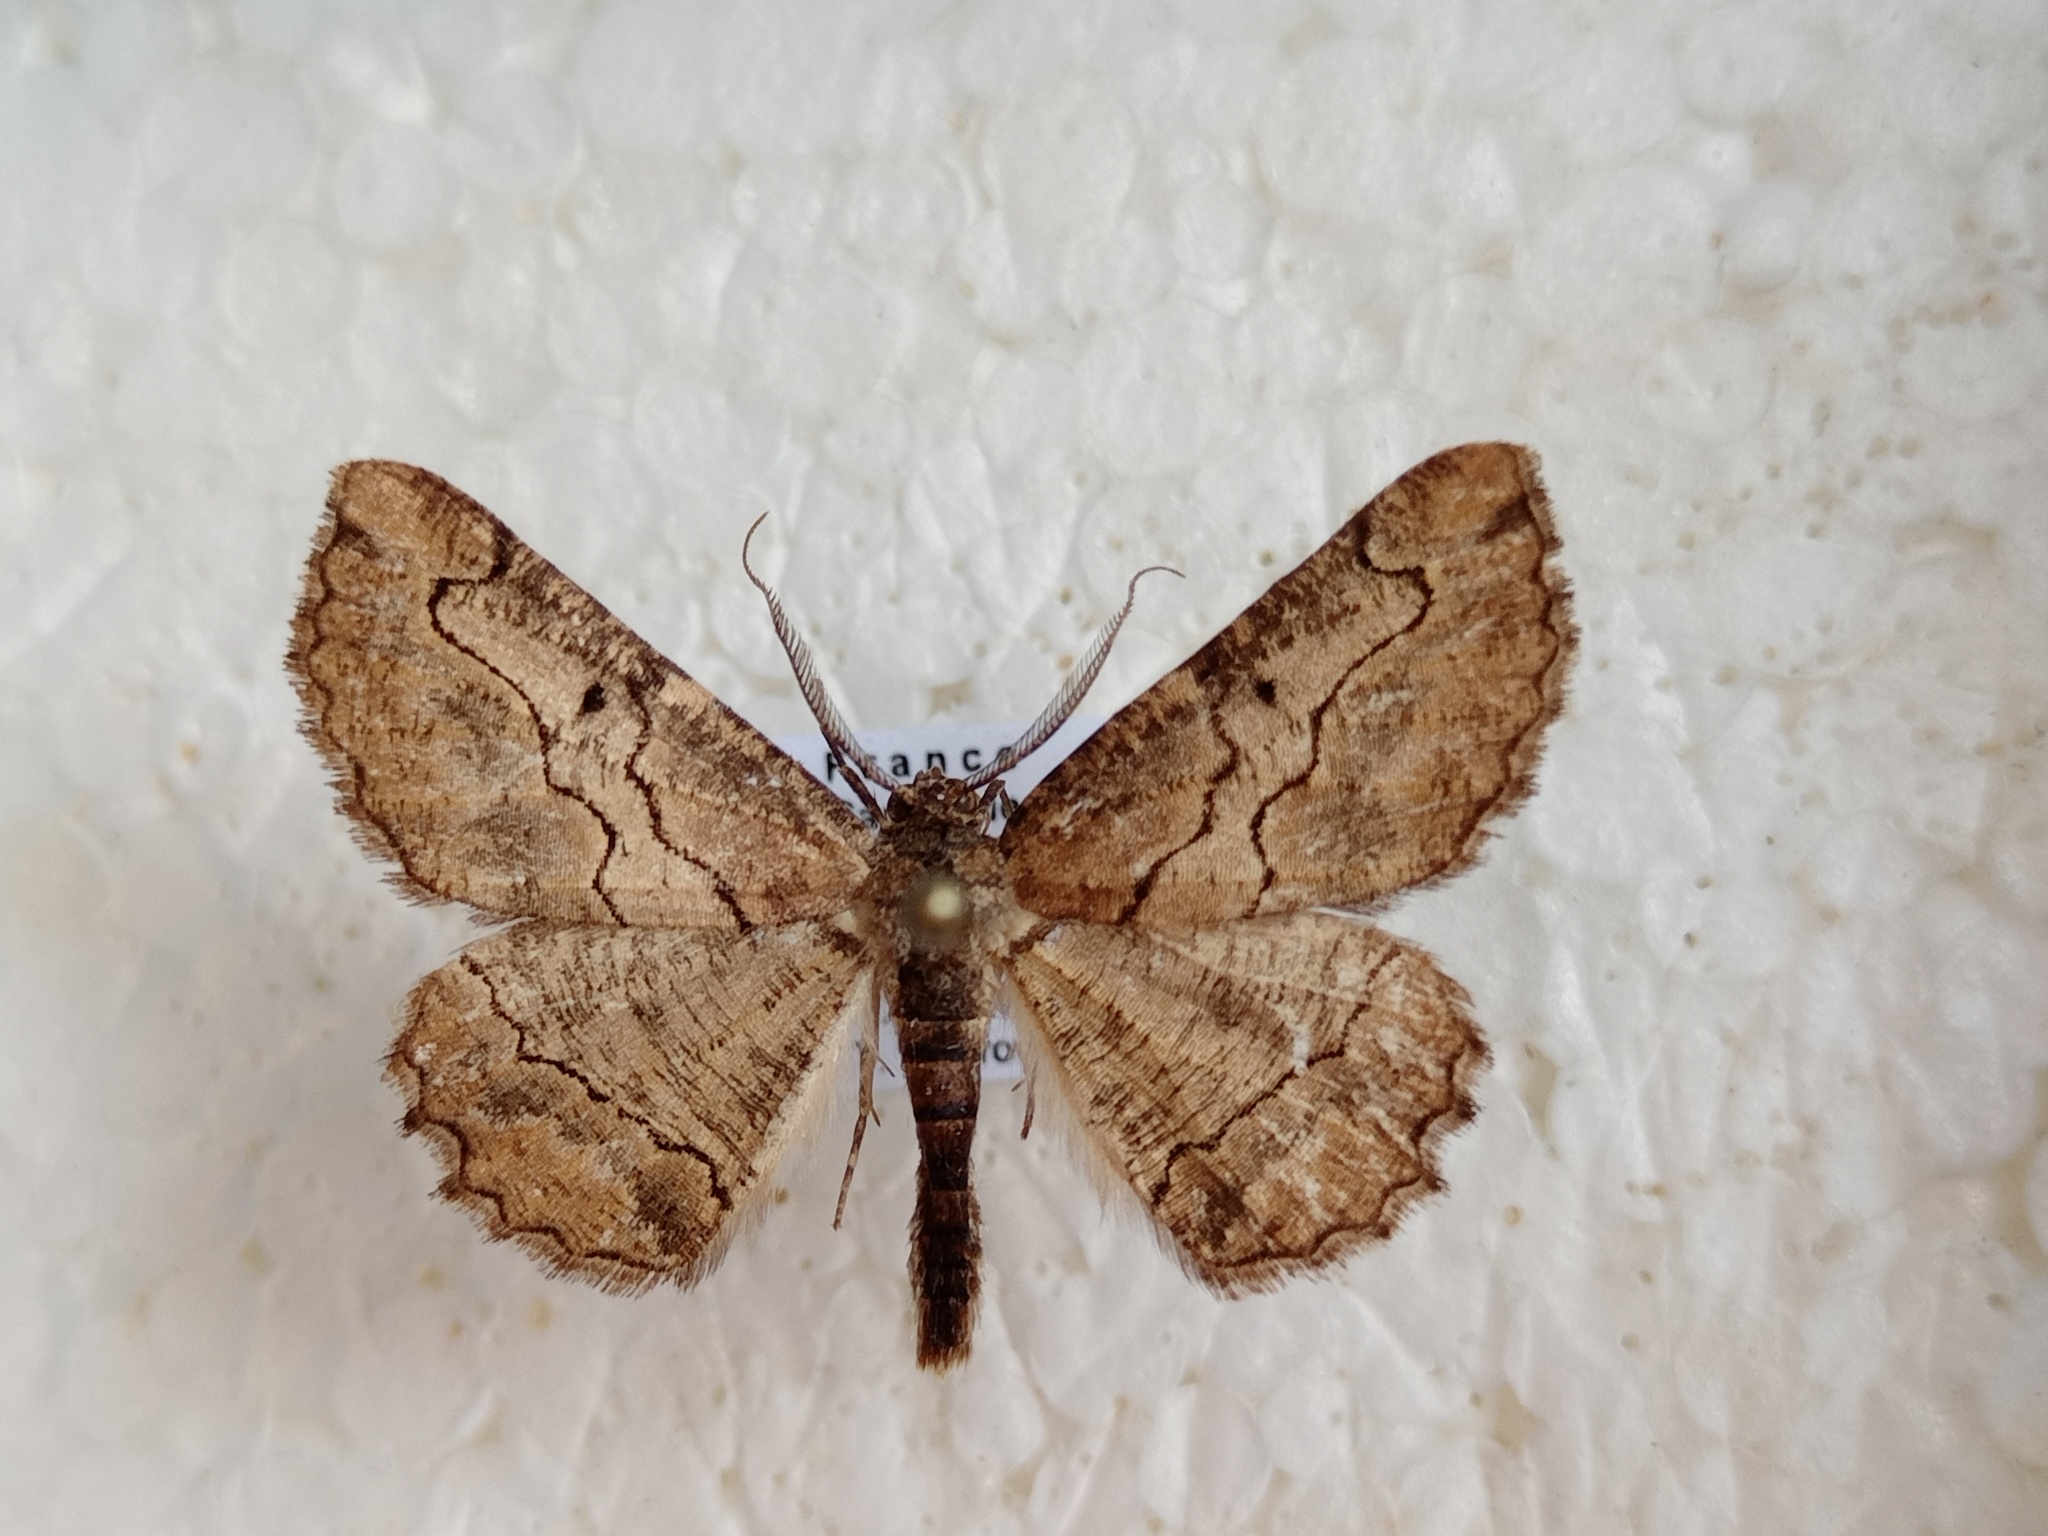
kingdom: Animalia
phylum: Arthropoda
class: Insecta
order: Lepidoptera
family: Geometridae
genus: Menophra
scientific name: Menophra japygiaria
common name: Brassy waved umber
